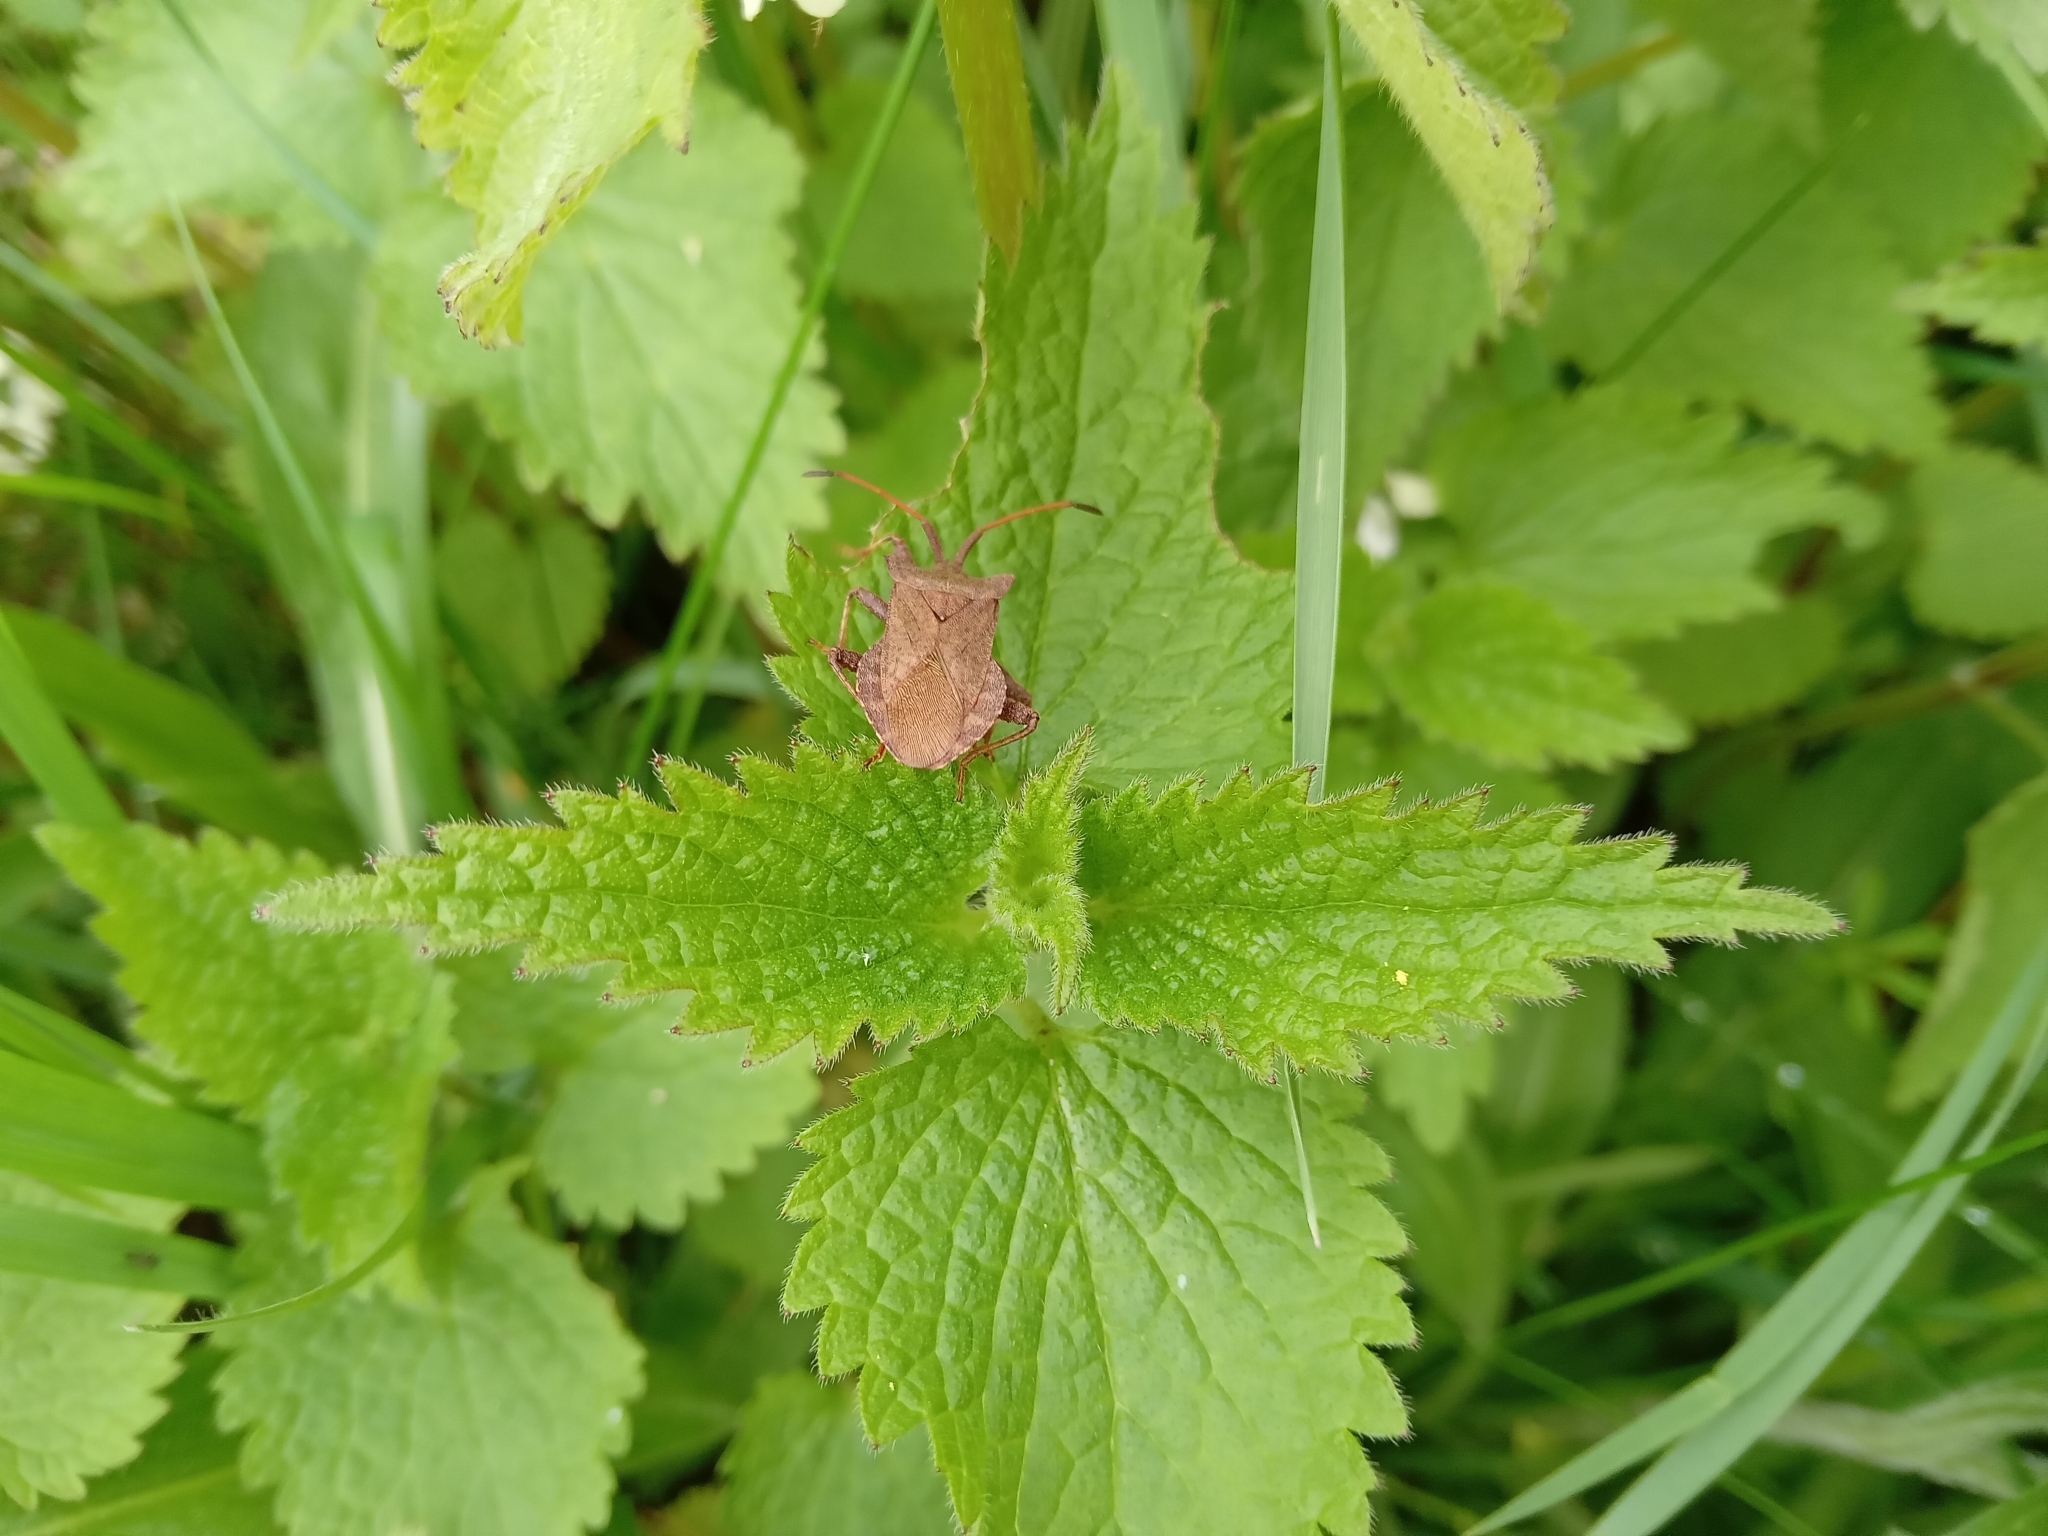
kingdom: Animalia
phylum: Arthropoda
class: Insecta
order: Hemiptera
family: Coreidae
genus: Coreus
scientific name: Coreus marginatus
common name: Dock bug
